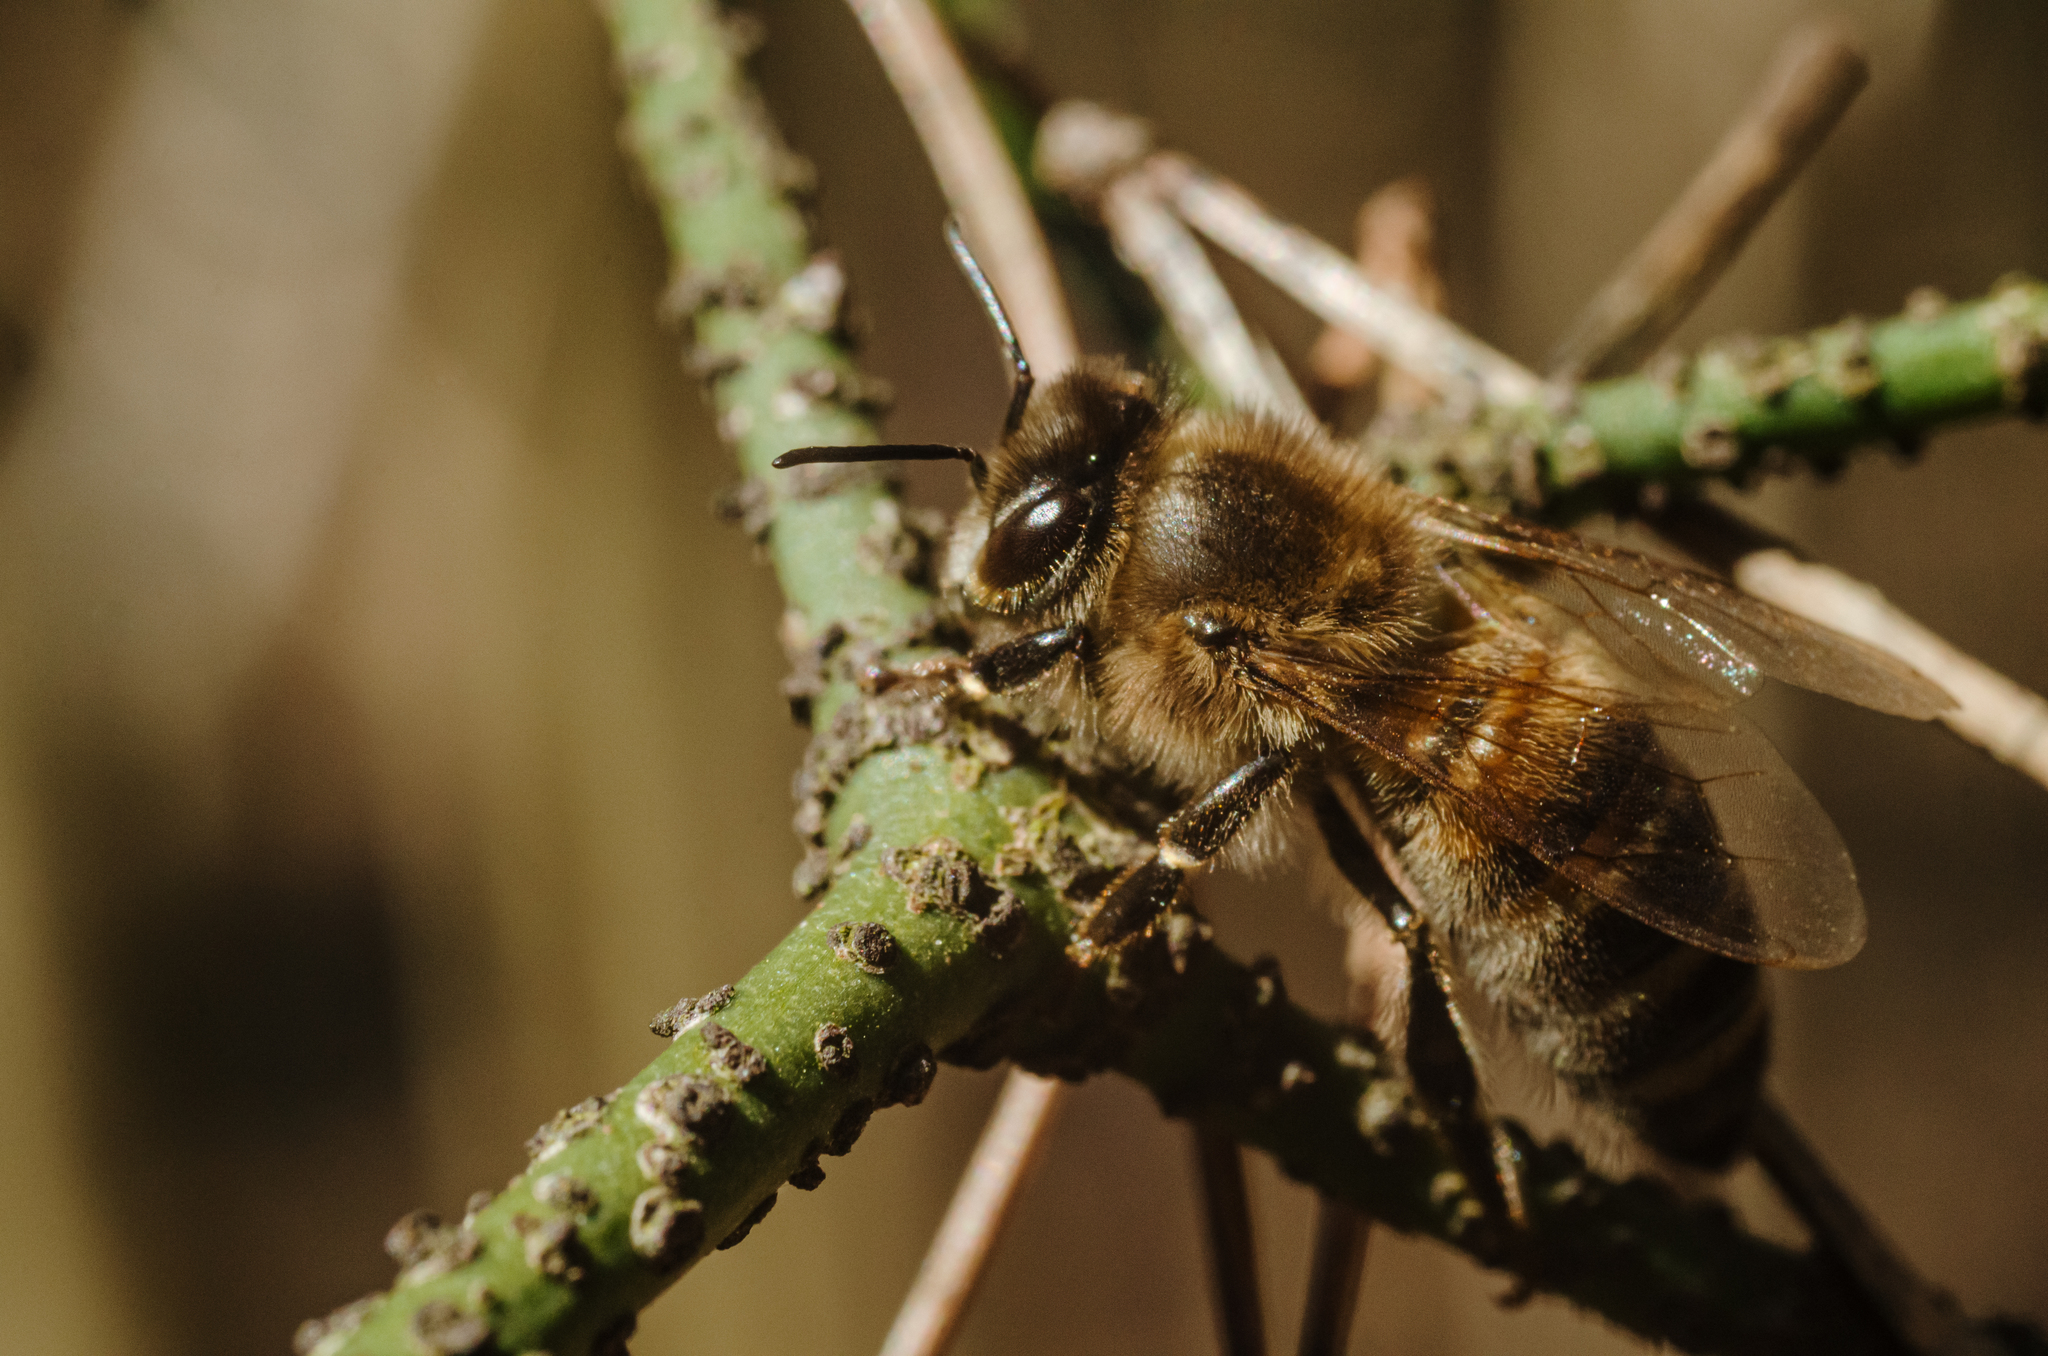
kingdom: Animalia
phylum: Arthropoda
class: Insecta
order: Hymenoptera
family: Apidae
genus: Apis
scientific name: Apis mellifera
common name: Honey bee
